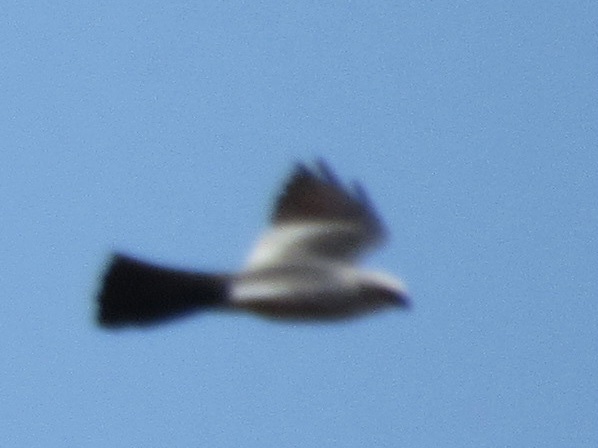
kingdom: Animalia
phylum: Chordata
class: Aves
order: Accipitriformes
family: Accipitridae
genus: Ictinia
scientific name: Ictinia mississippiensis
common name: Mississippi kite
